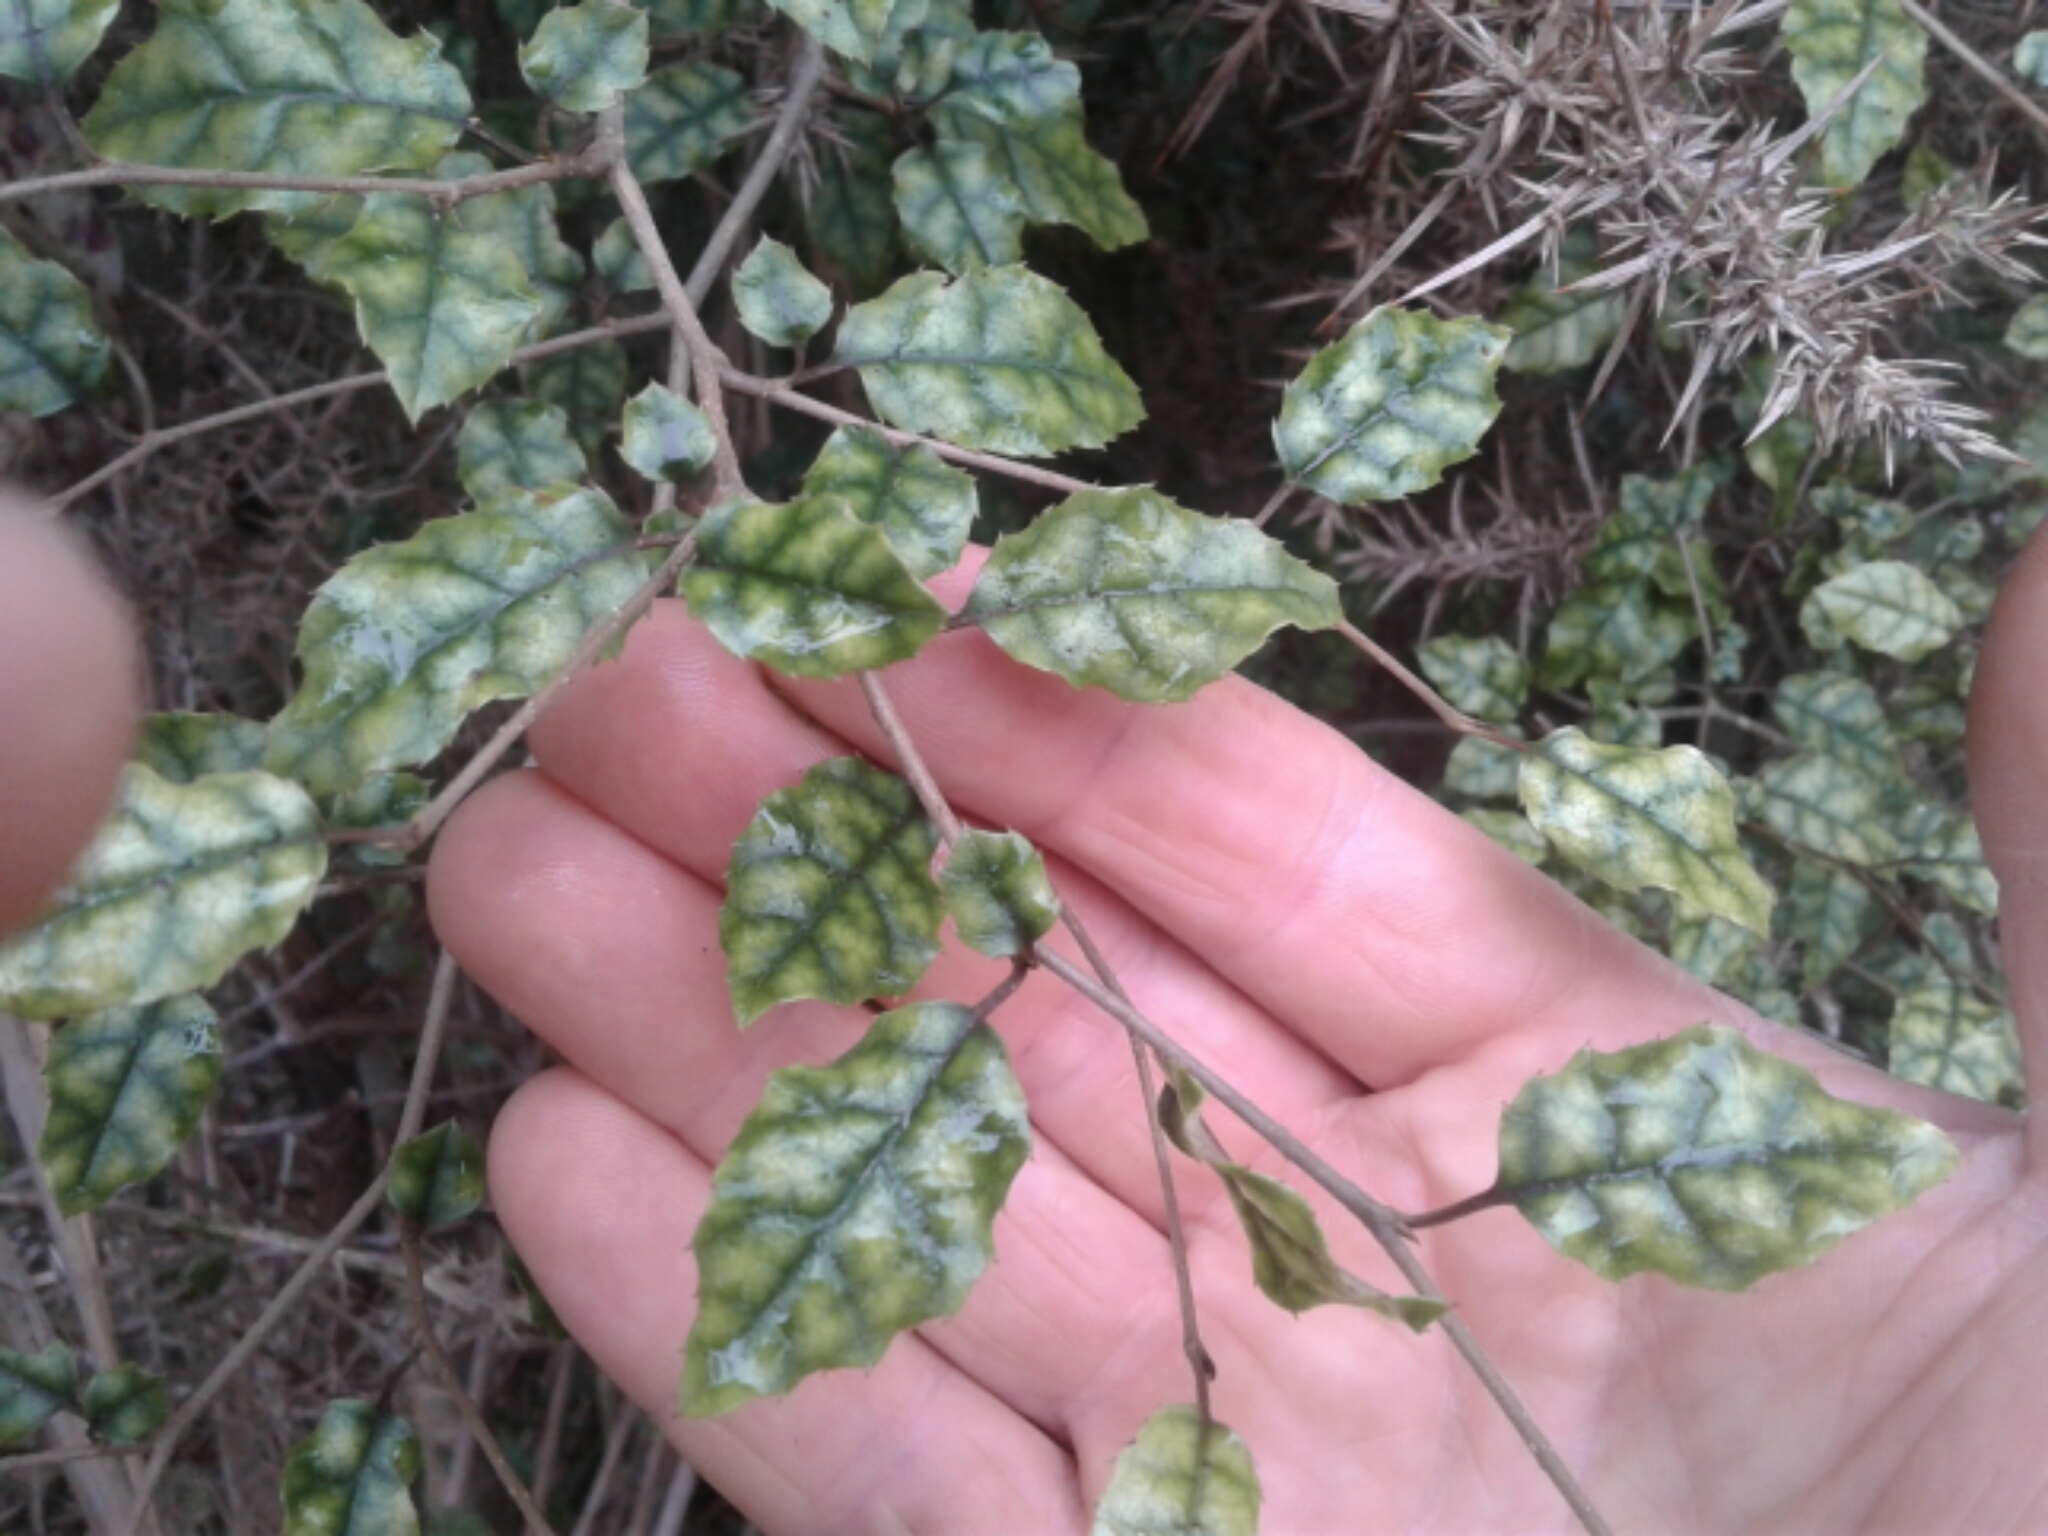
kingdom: Plantae
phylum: Tracheophyta
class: Magnoliopsida
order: Asterales
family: Rousseaceae
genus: Carpodetus
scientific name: Carpodetus serratus
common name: White mapau
